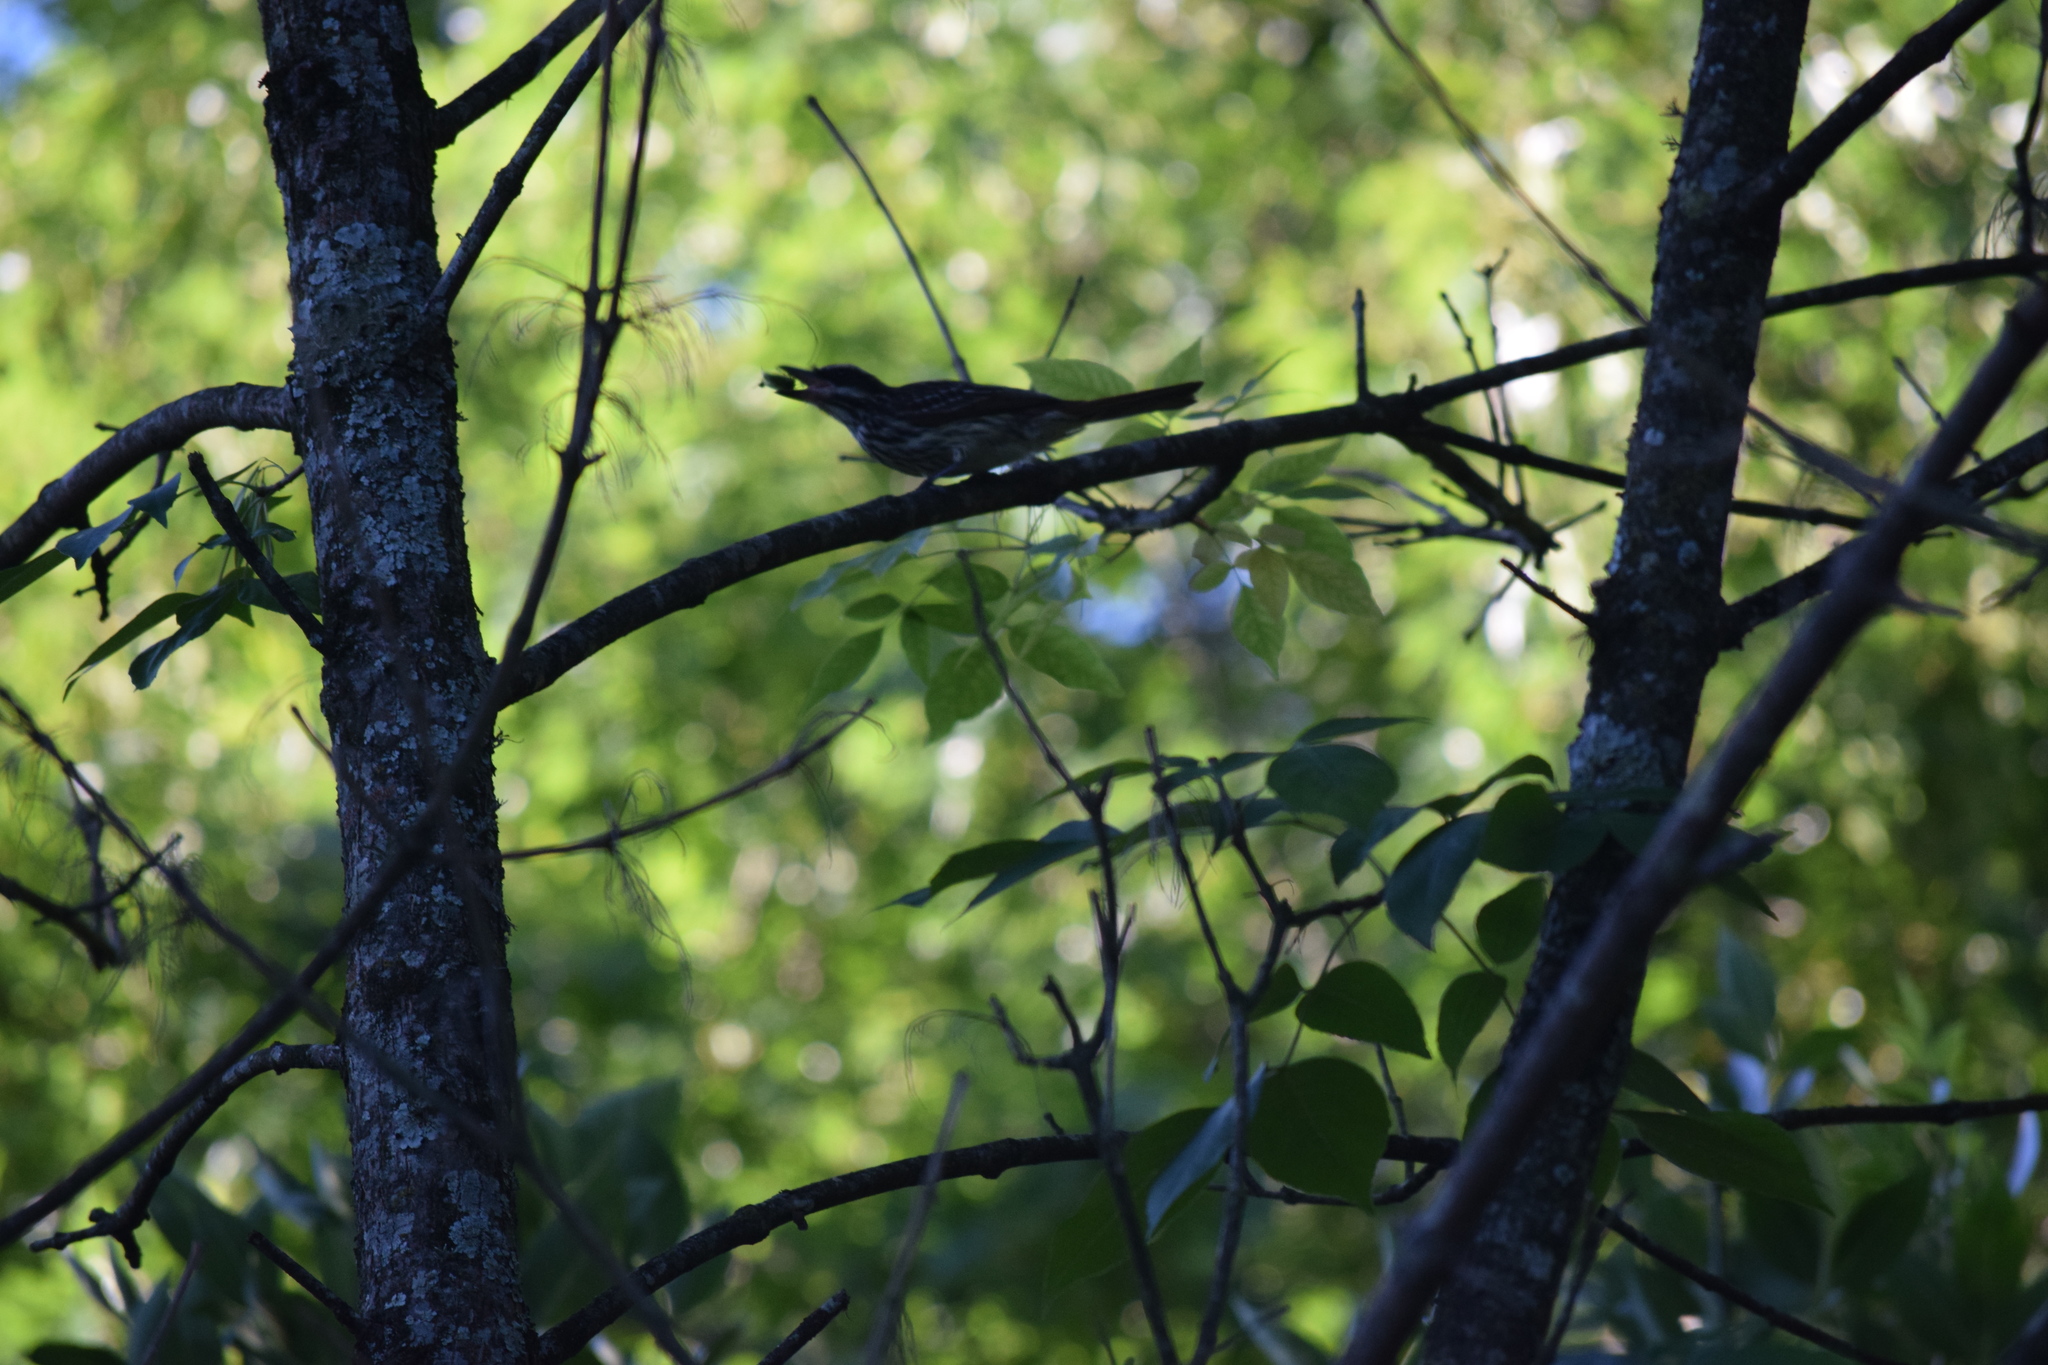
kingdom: Animalia
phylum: Chordata
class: Aves
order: Passeriformes
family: Tyrannidae
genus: Myiodynastes
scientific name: Myiodynastes maculatus
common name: Streaked flycatcher
